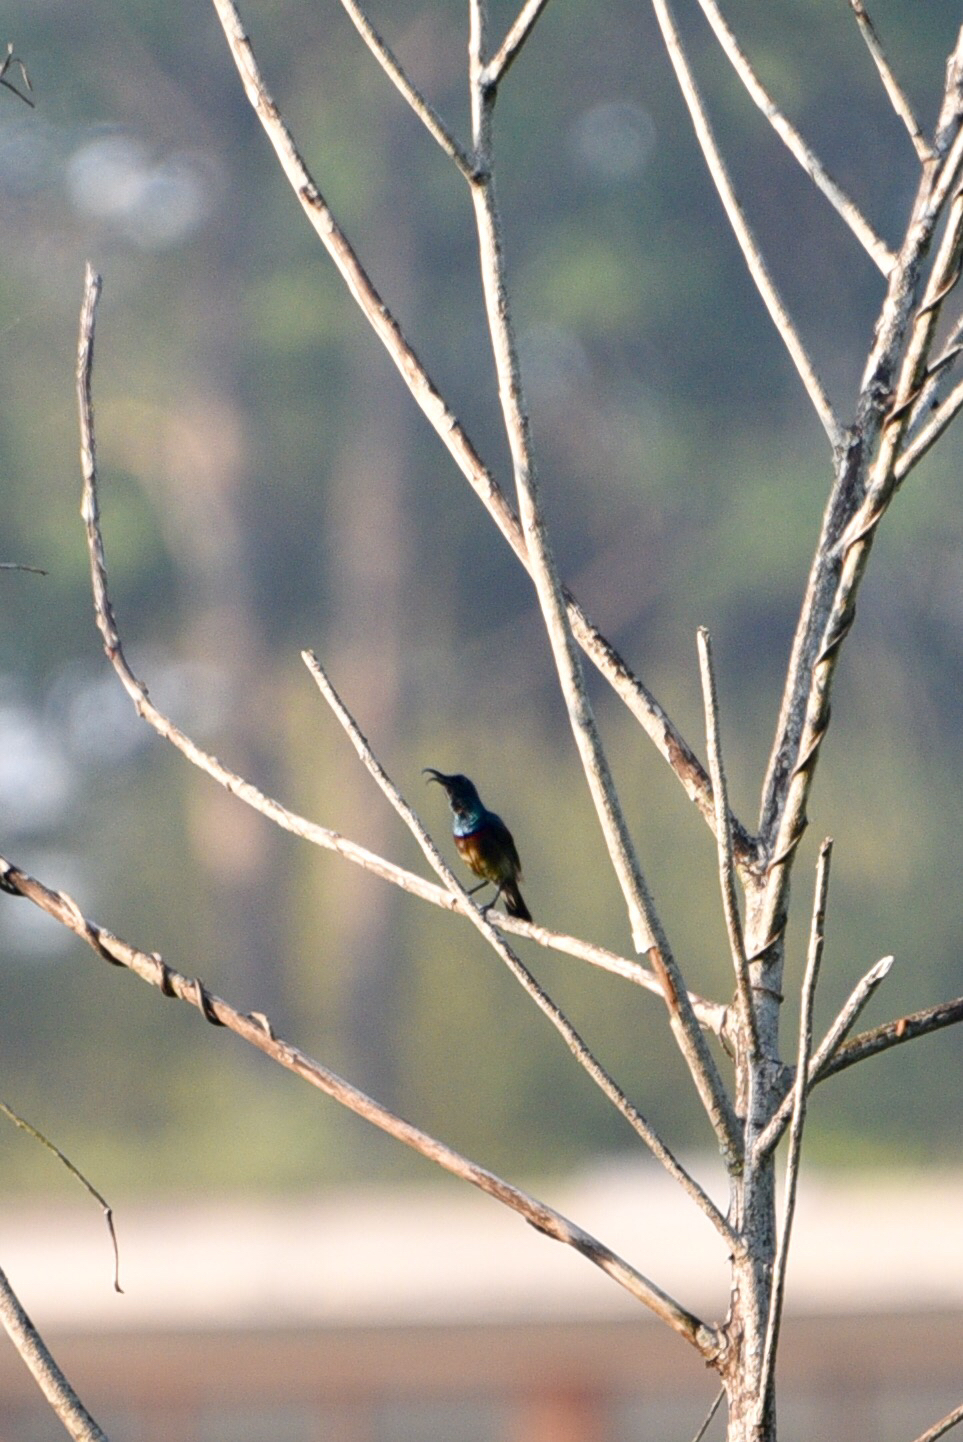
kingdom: Animalia
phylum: Chordata
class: Aves
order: Passeriformes
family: Nectariniidae
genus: Cinnyris
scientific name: Cinnyris lotenius
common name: Loten's sunbird
